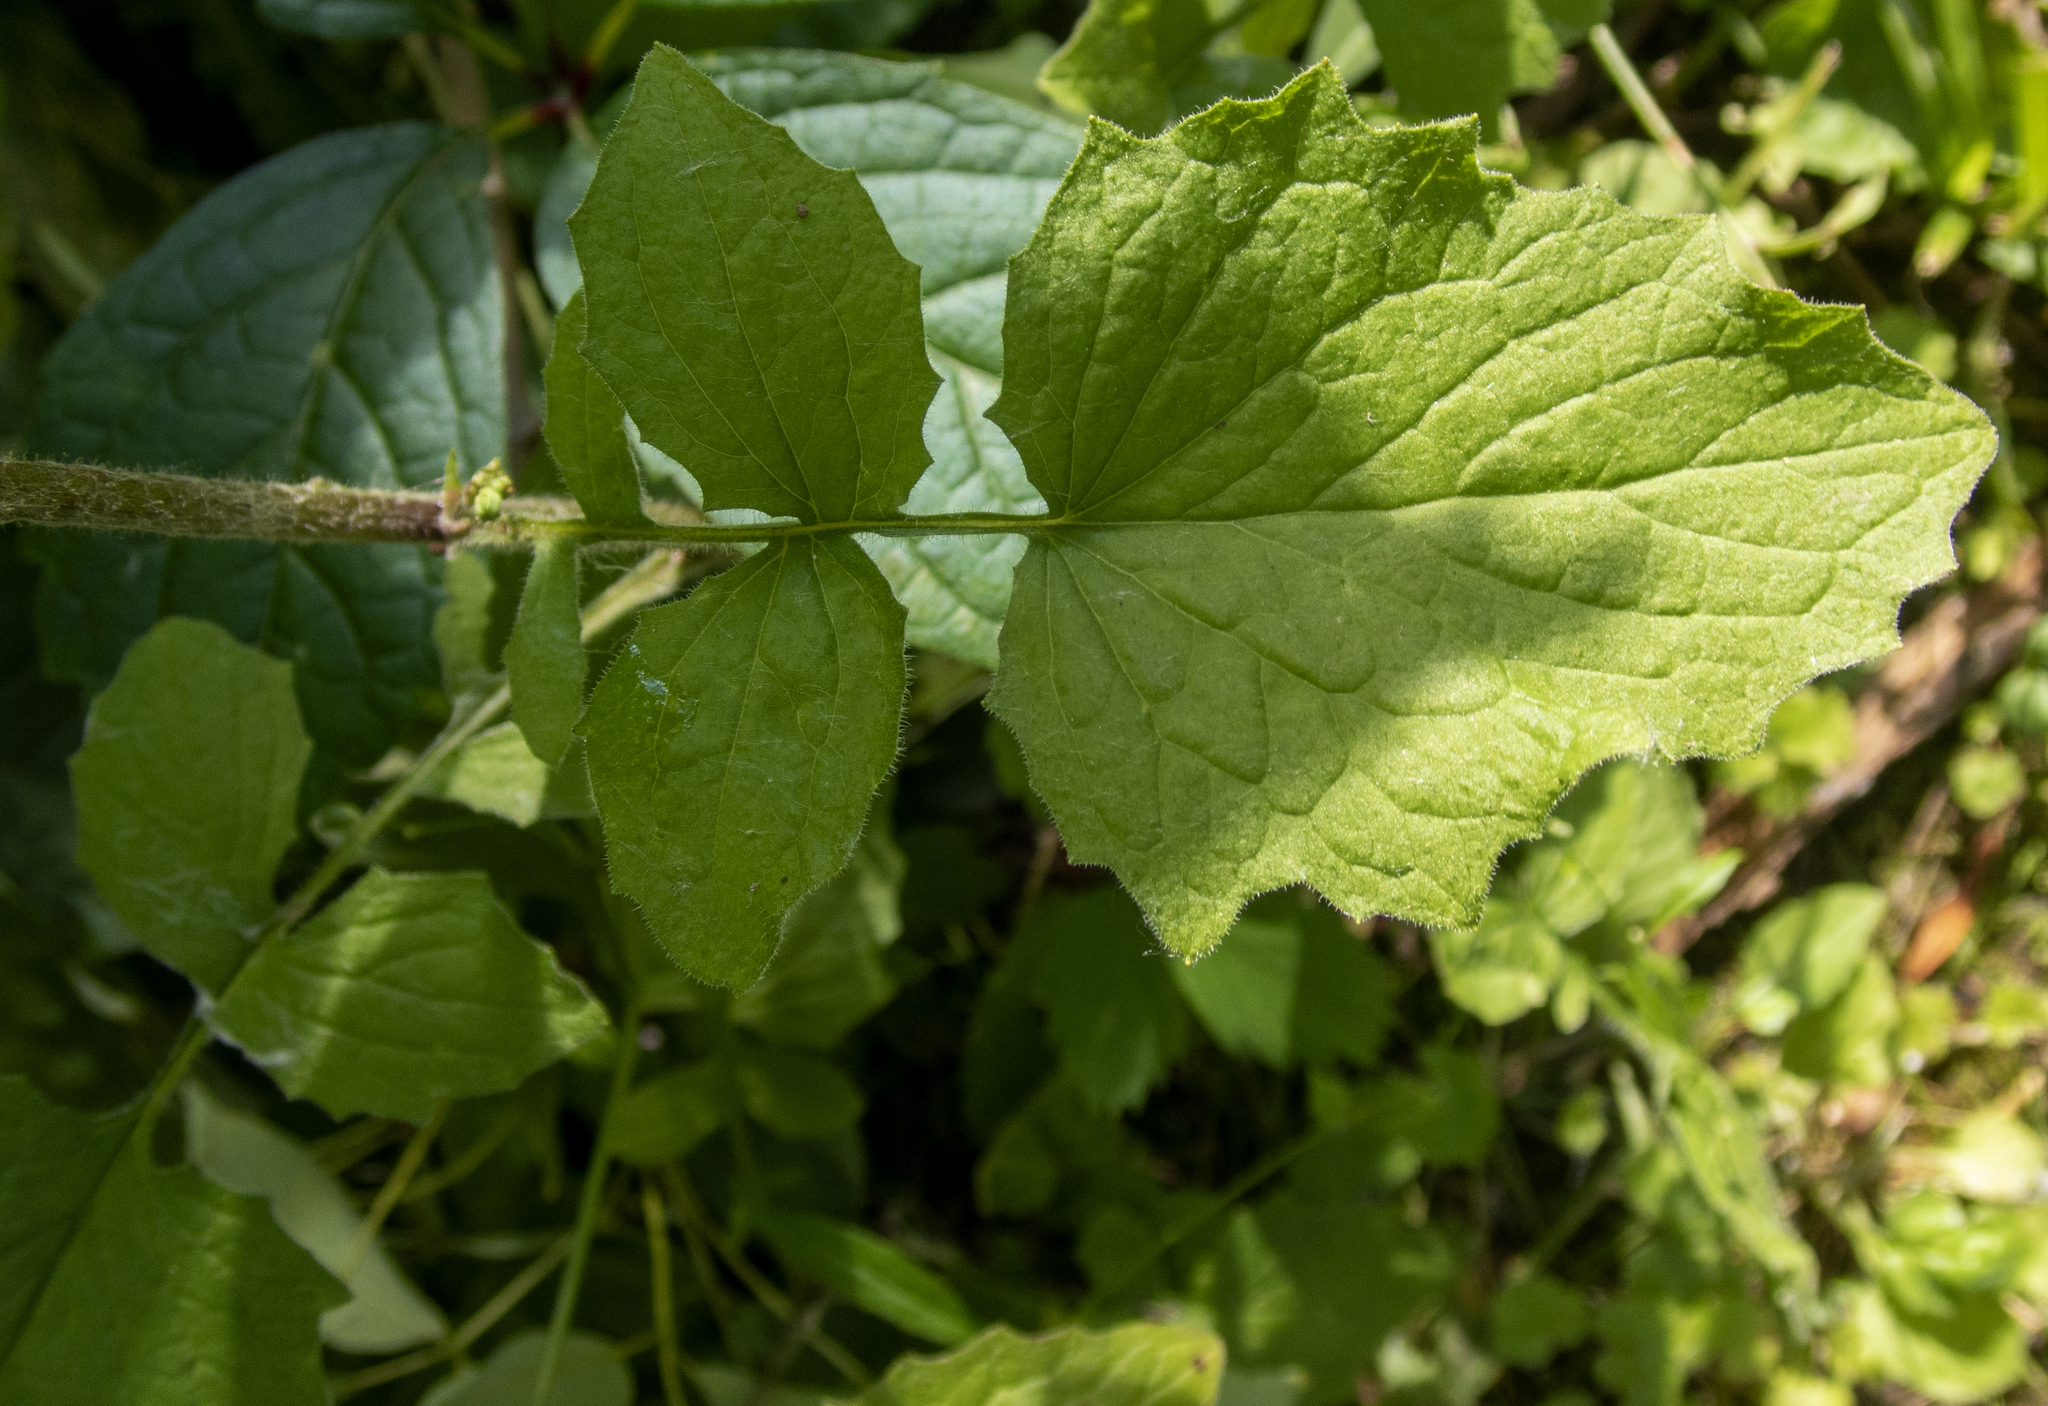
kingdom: Plantae
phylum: Tracheophyta
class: Magnoliopsida
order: Asterales
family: Asteraceae
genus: Lapsana
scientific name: Lapsana communis
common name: Nipplewort
